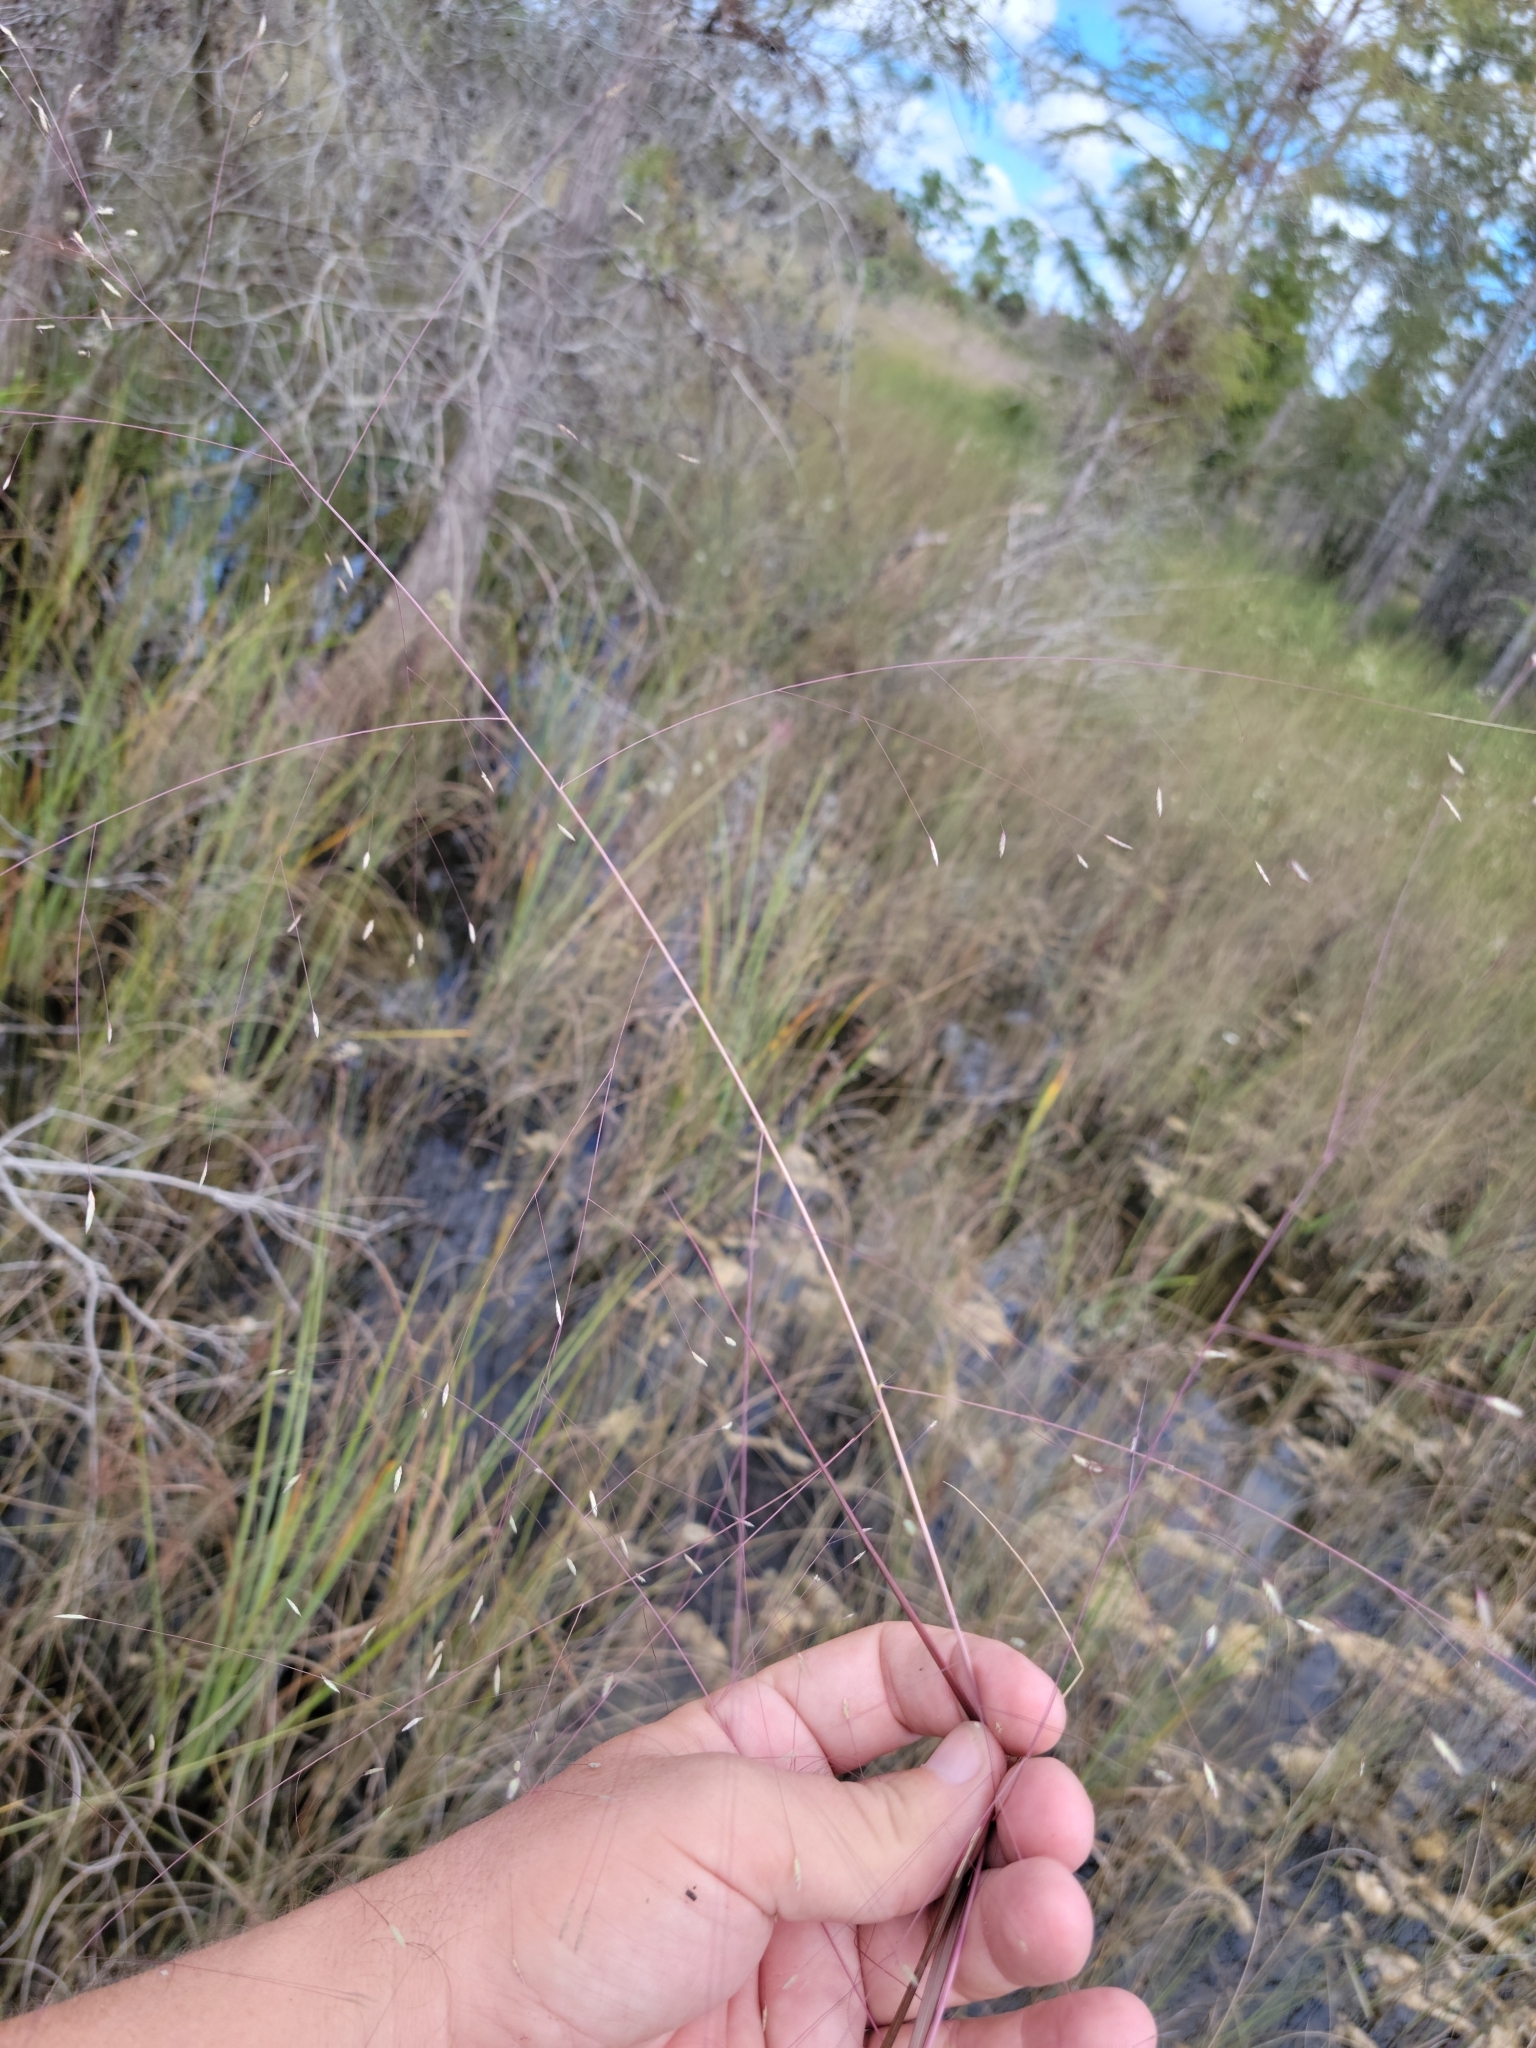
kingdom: Plantae
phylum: Tracheophyta
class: Liliopsida
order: Poales
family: Poaceae
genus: Eragrostis
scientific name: Eragrostis elliottii
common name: Elliott's love grass
